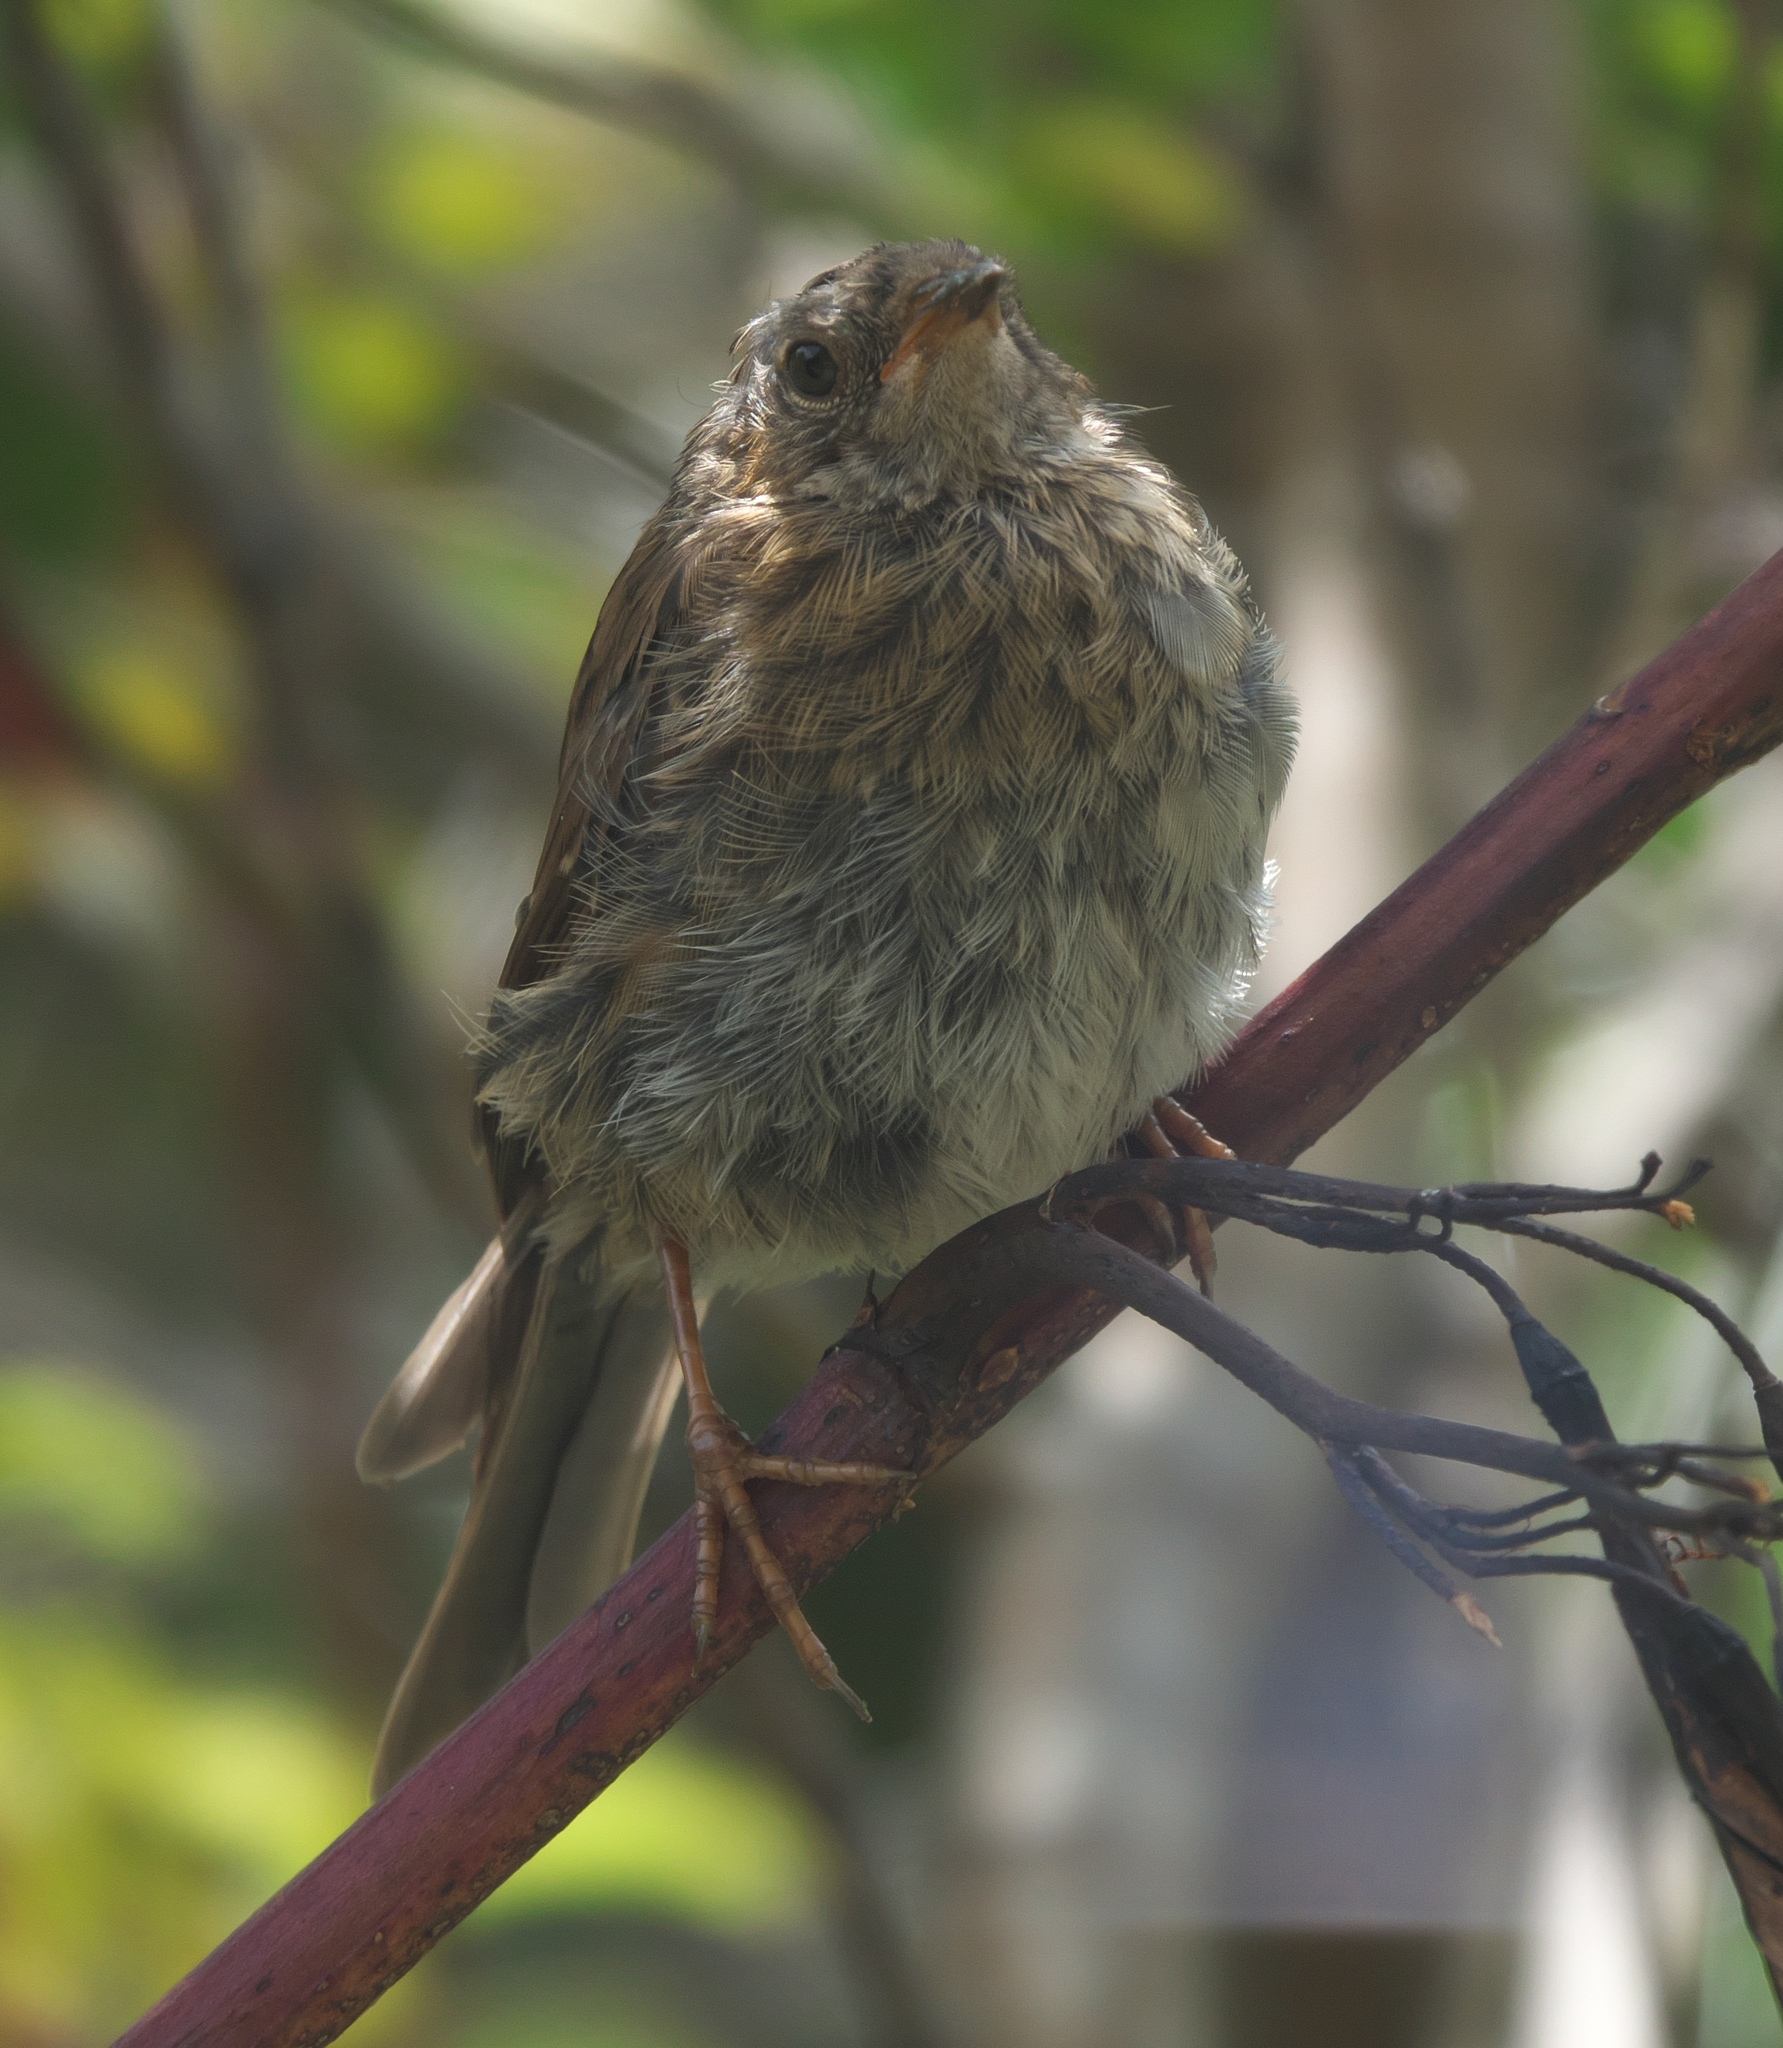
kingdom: Animalia
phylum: Chordata
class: Aves
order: Passeriformes
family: Prunellidae
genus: Prunella
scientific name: Prunella modularis
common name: Dunnock
